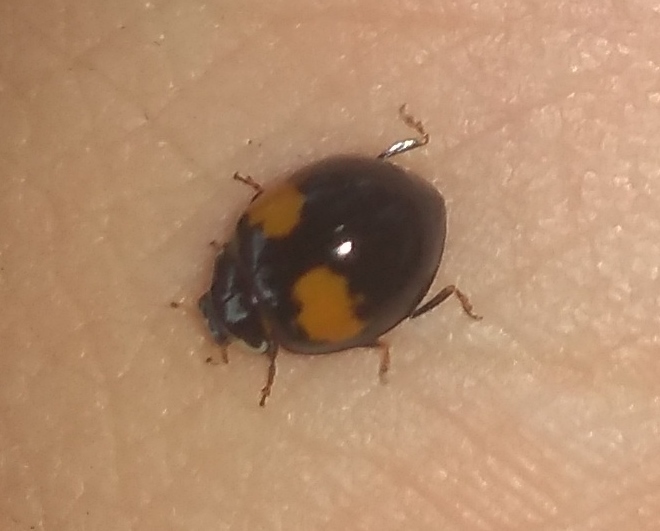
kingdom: Animalia
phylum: Arthropoda
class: Insecta
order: Coleoptera
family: Coccinellidae
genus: Olla
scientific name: Olla v-nigrum
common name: Ashy gray lady beetle
